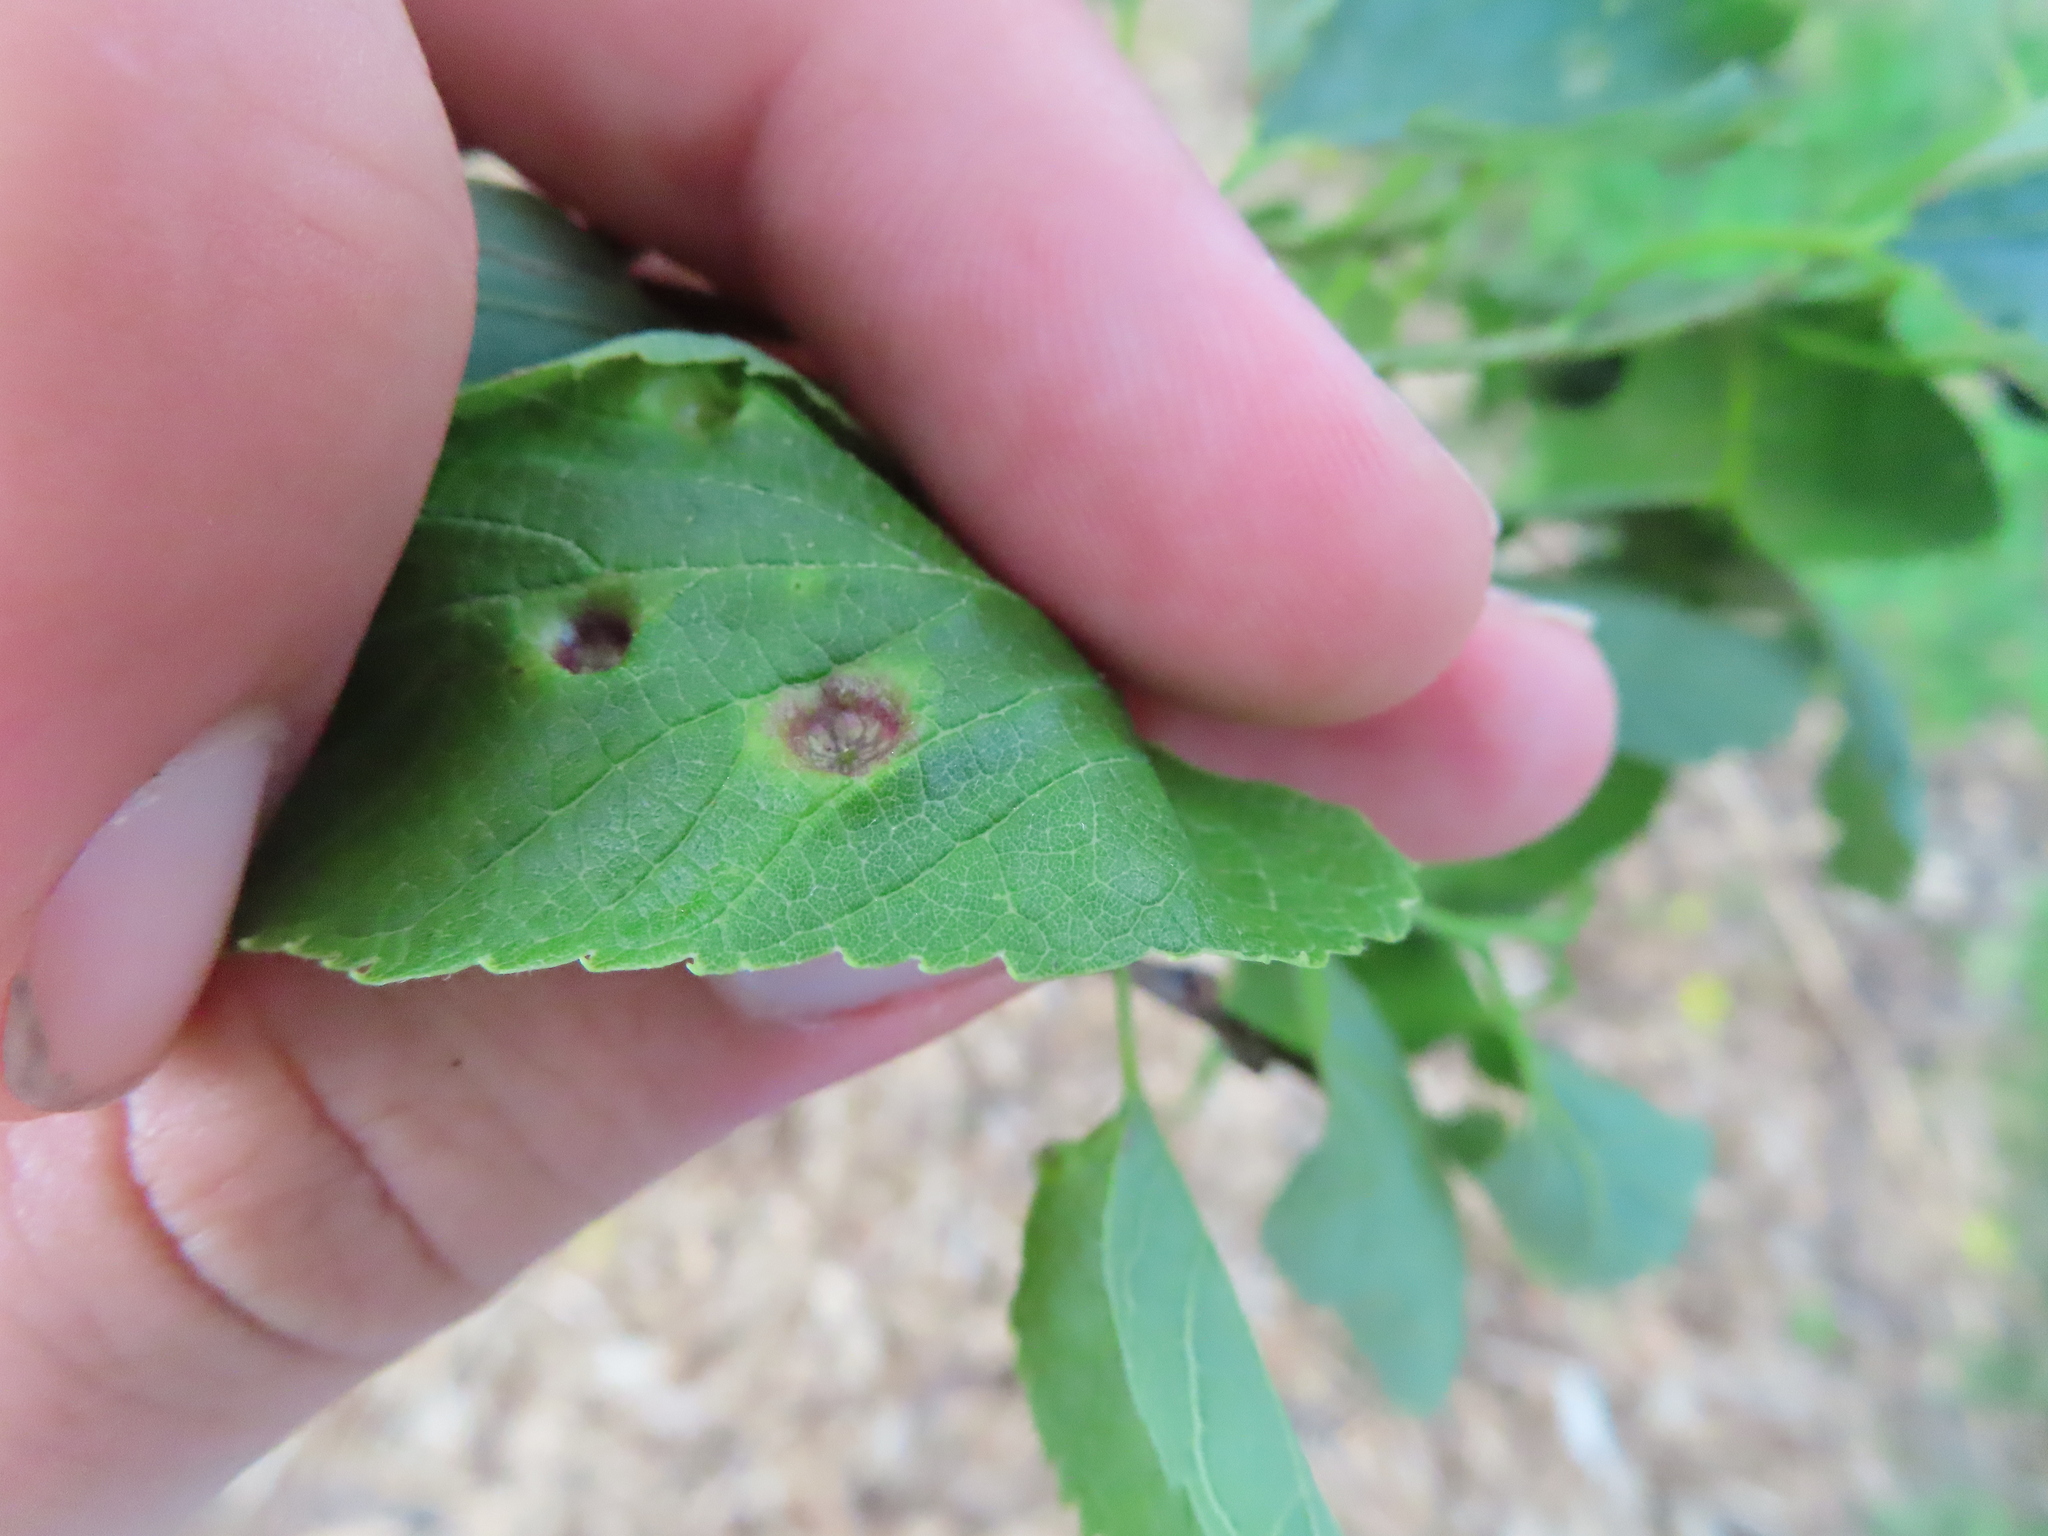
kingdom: Animalia
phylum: Arthropoda
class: Insecta
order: Hemiptera
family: Aphalaridae
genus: Pachypsylla
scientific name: Pachypsylla celtidismamma
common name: Hackberry nipplegall psyllid
